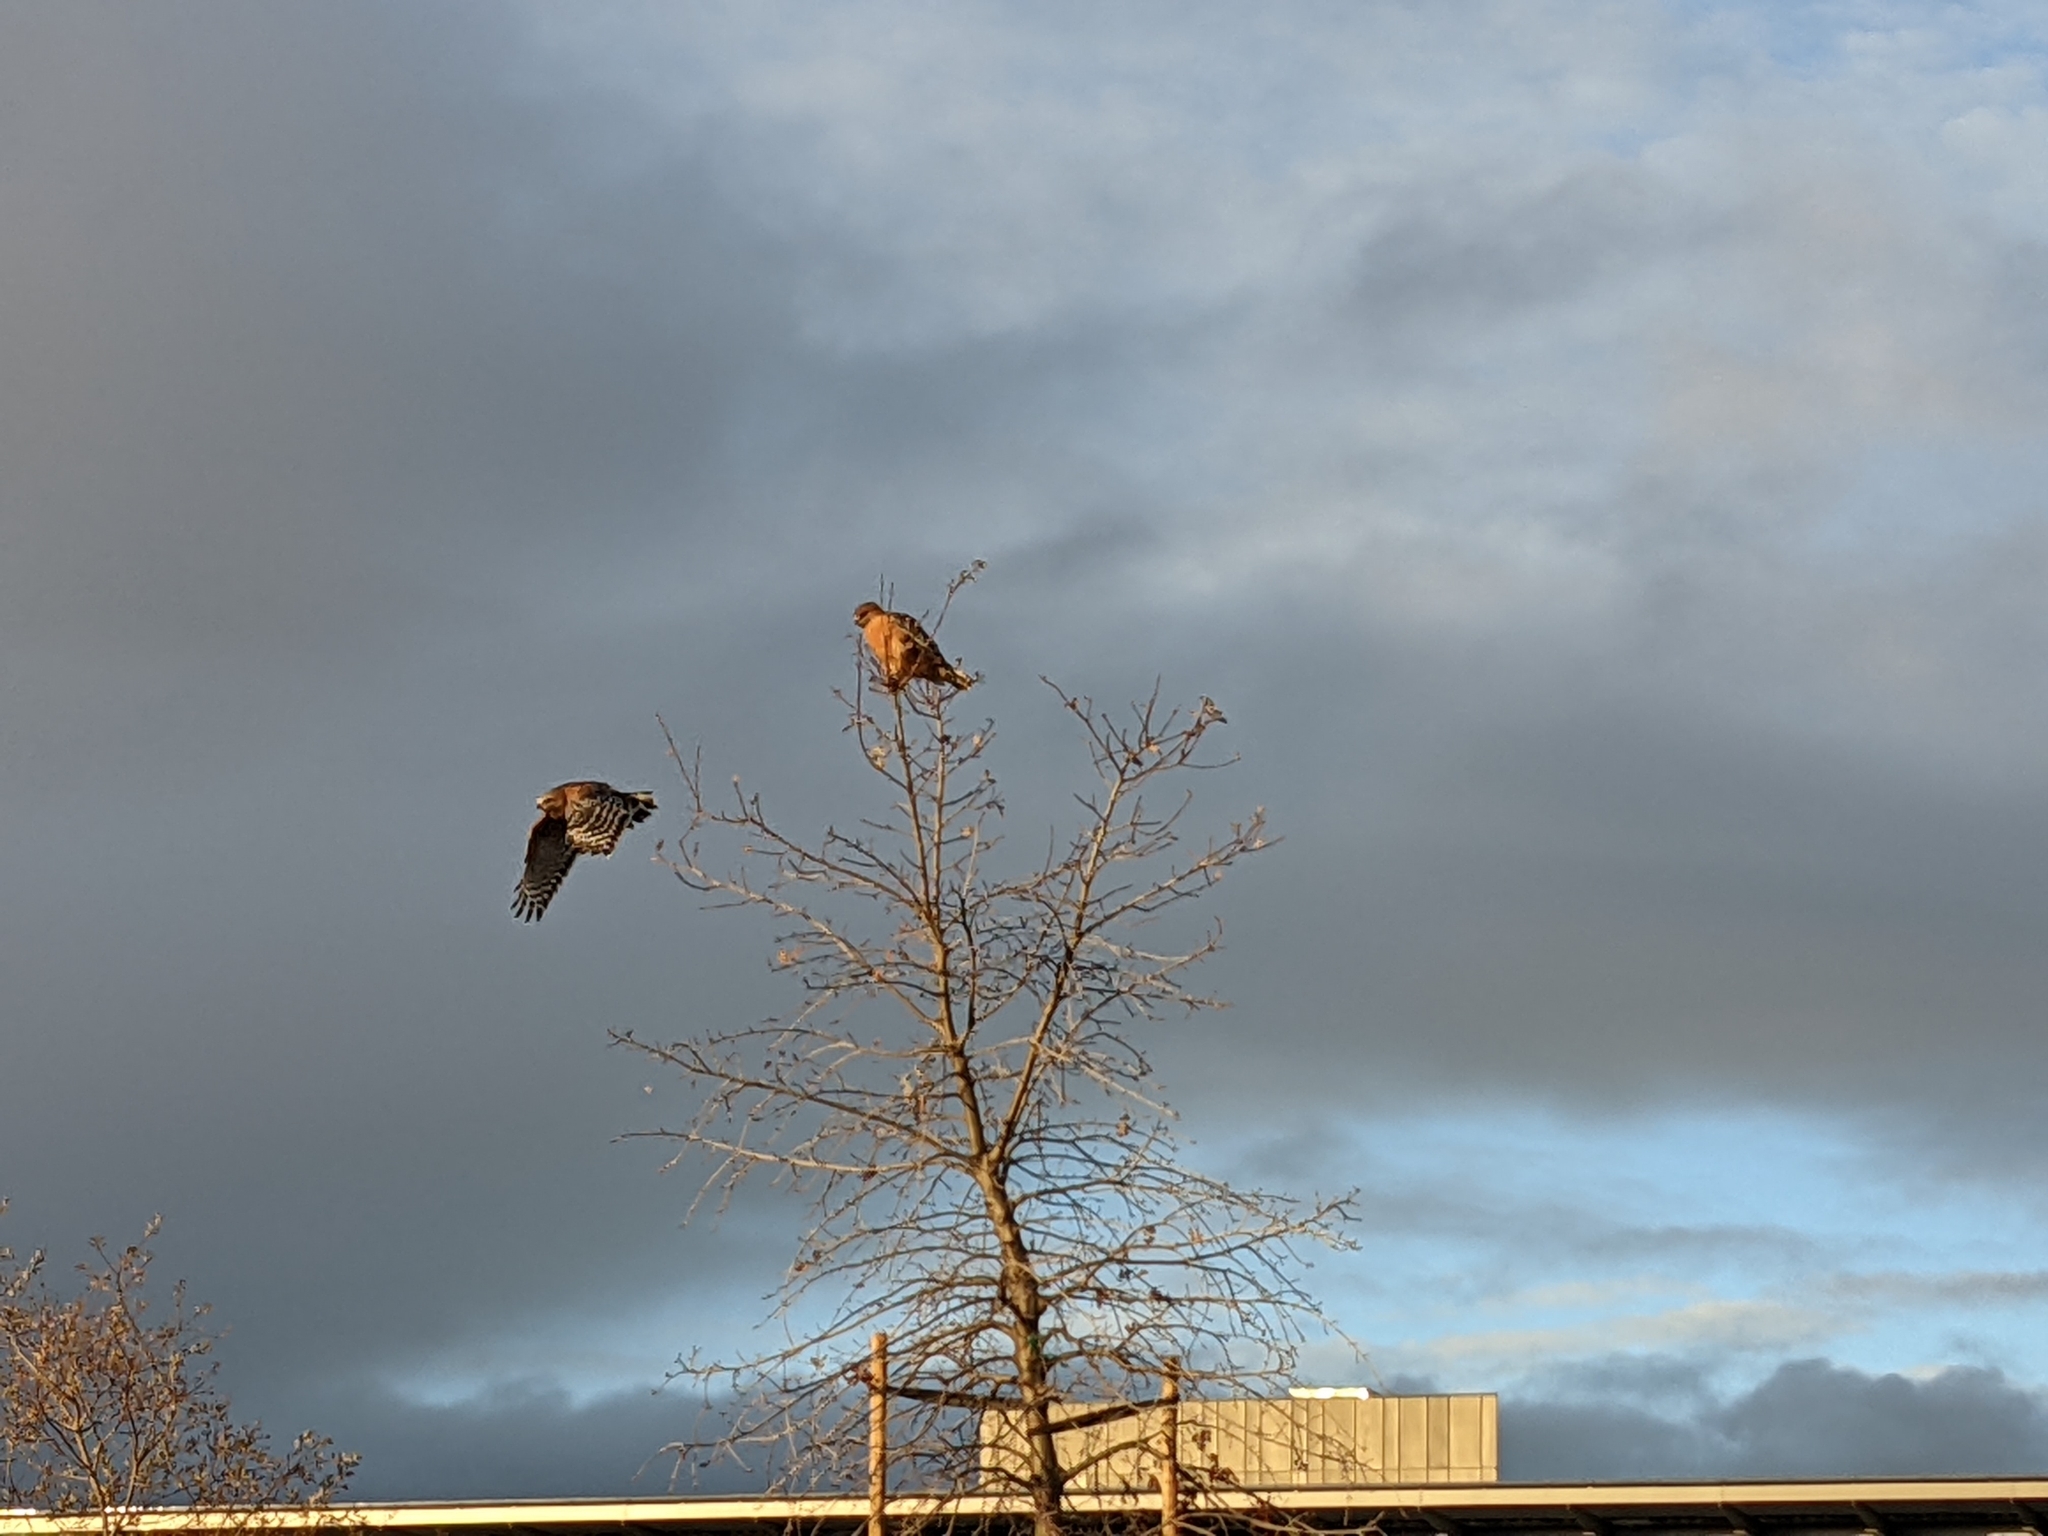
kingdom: Animalia
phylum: Chordata
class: Aves
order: Accipitriformes
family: Accipitridae
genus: Buteo
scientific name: Buteo lineatus
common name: Red-shouldered hawk
